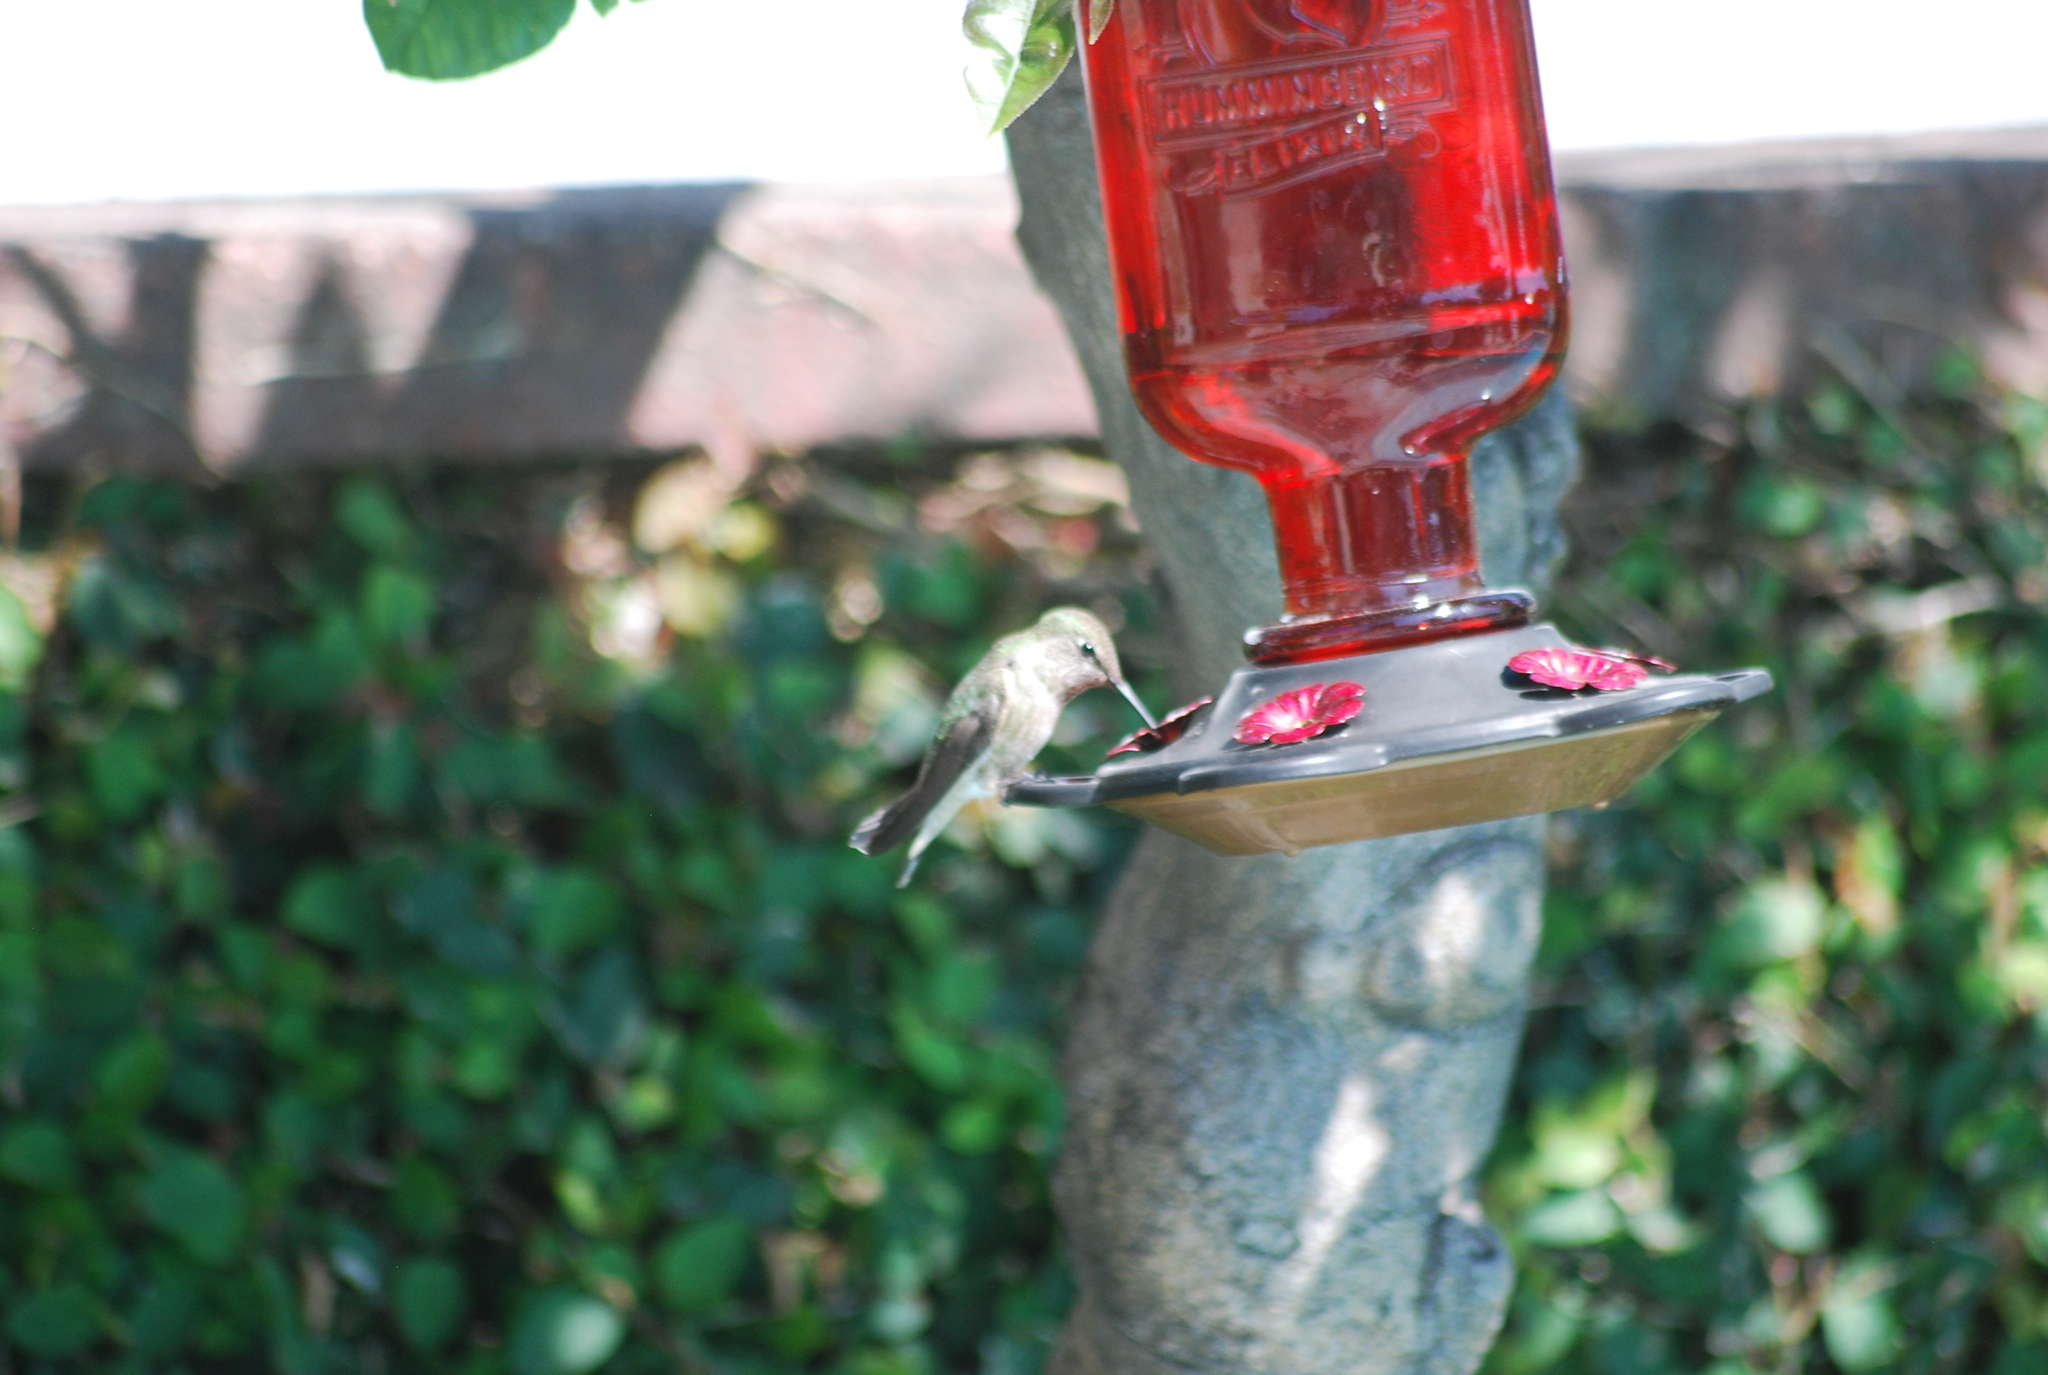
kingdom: Animalia
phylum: Chordata
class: Aves
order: Apodiformes
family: Trochilidae
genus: Calypte
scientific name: Calypte anna
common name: Anna's hummingbird
